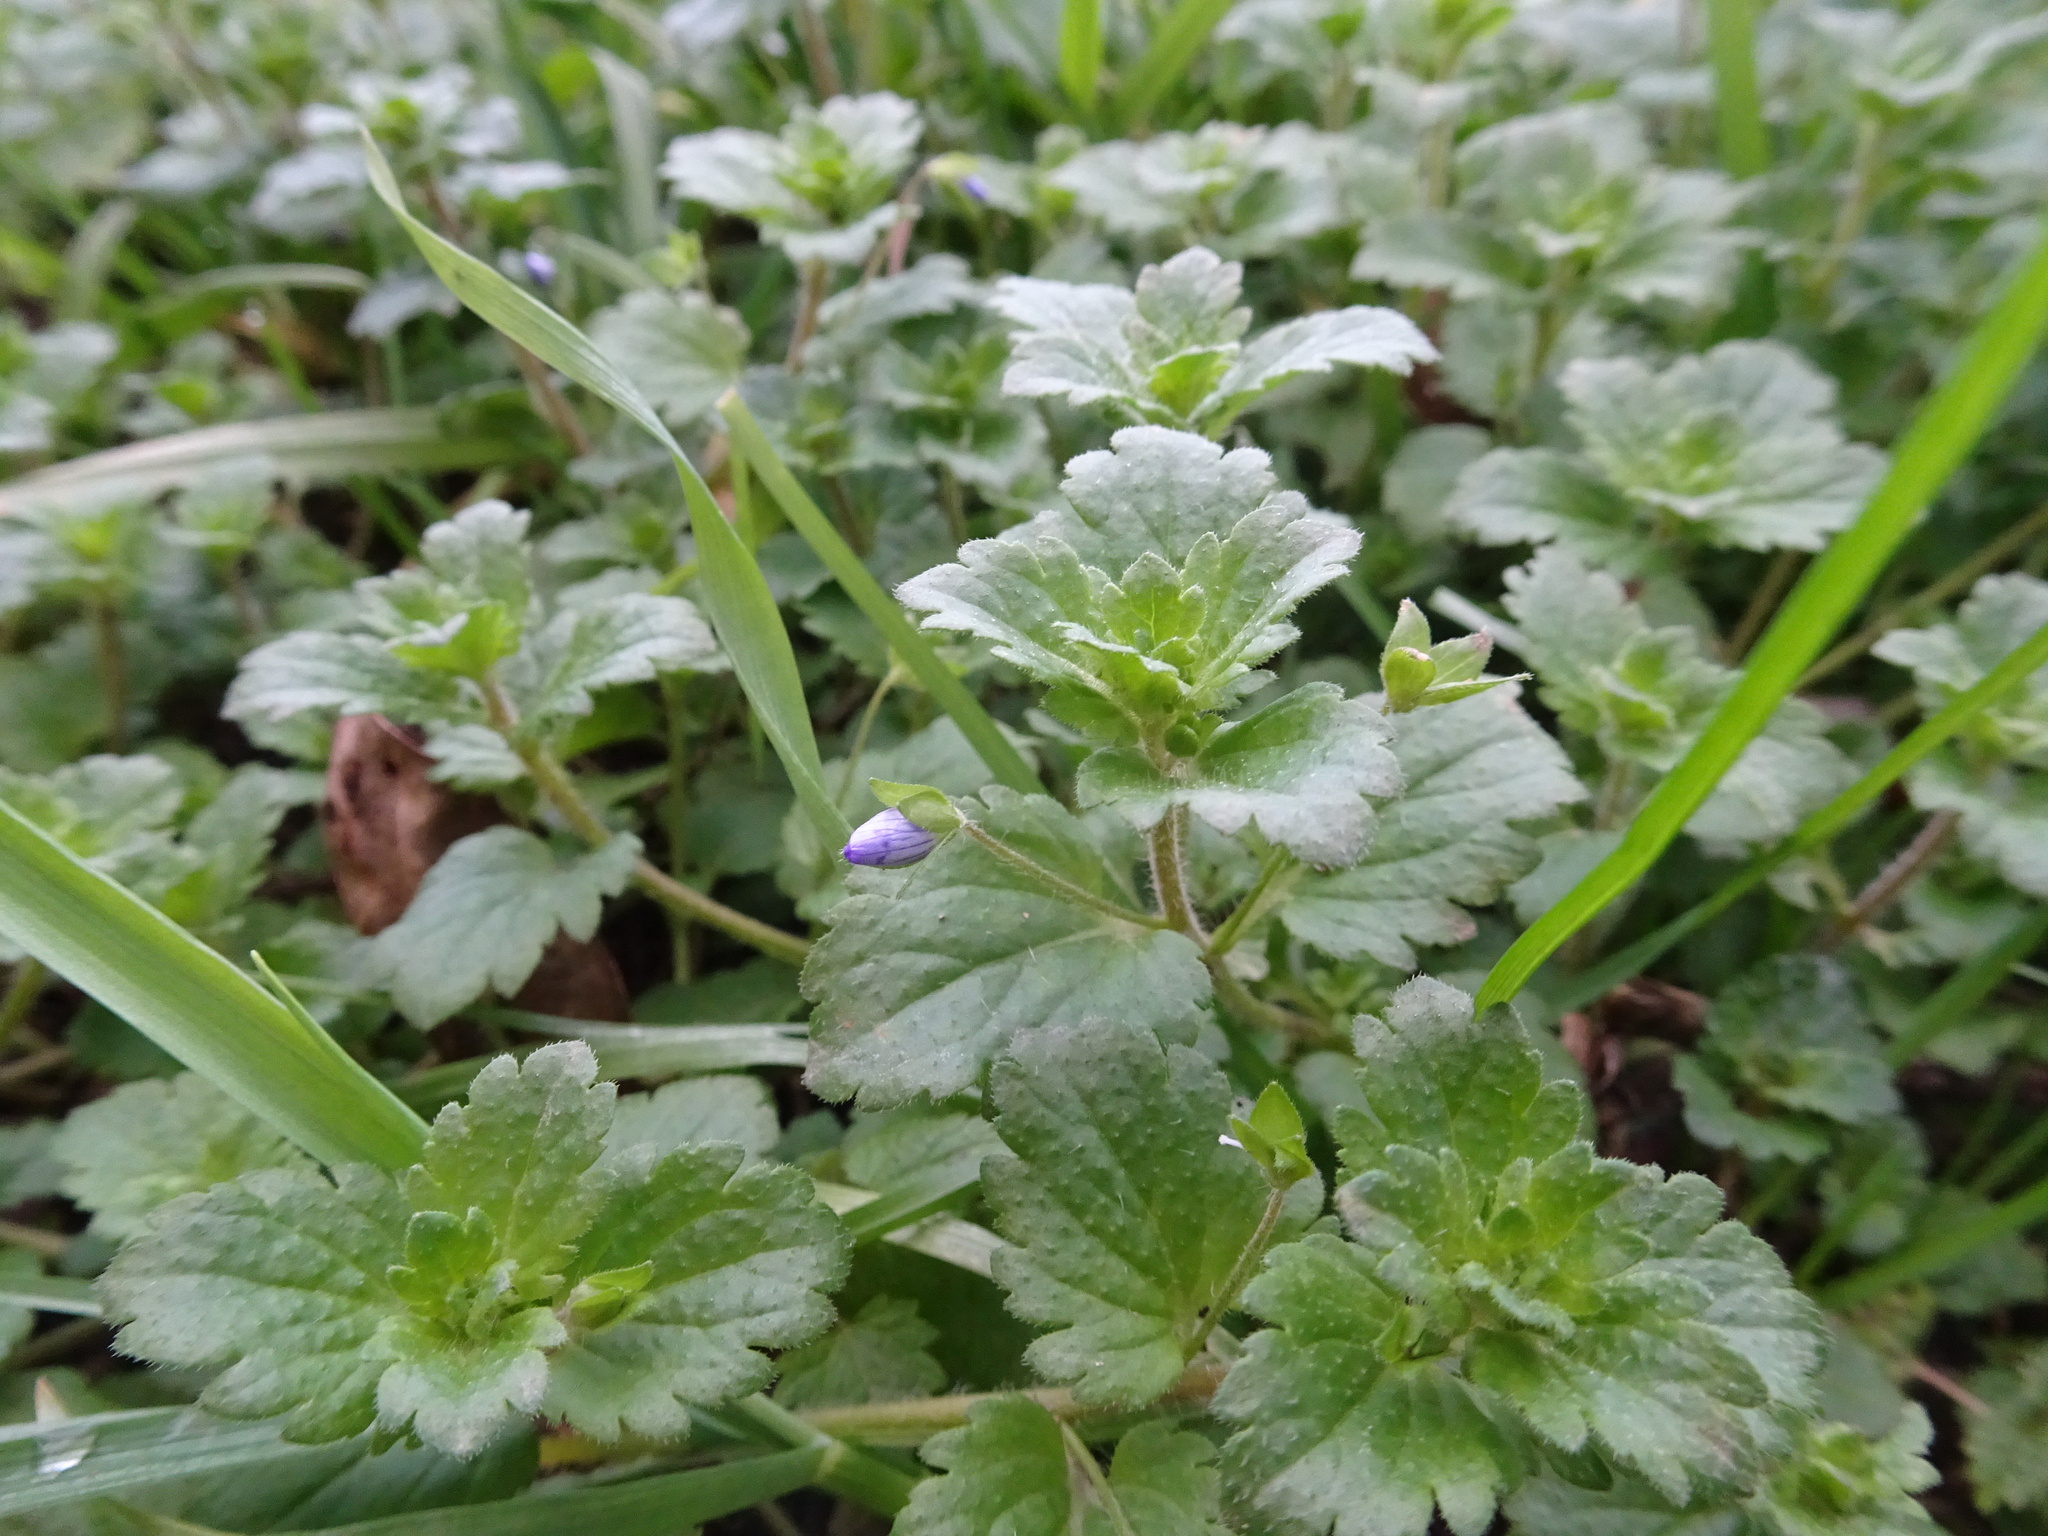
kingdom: Plantae
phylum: Tracheophyta
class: Magnoliopsida
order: Lamiales
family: Plantaginaceae
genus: Veronica
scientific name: Veronica persica
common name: Common field-speedwell
